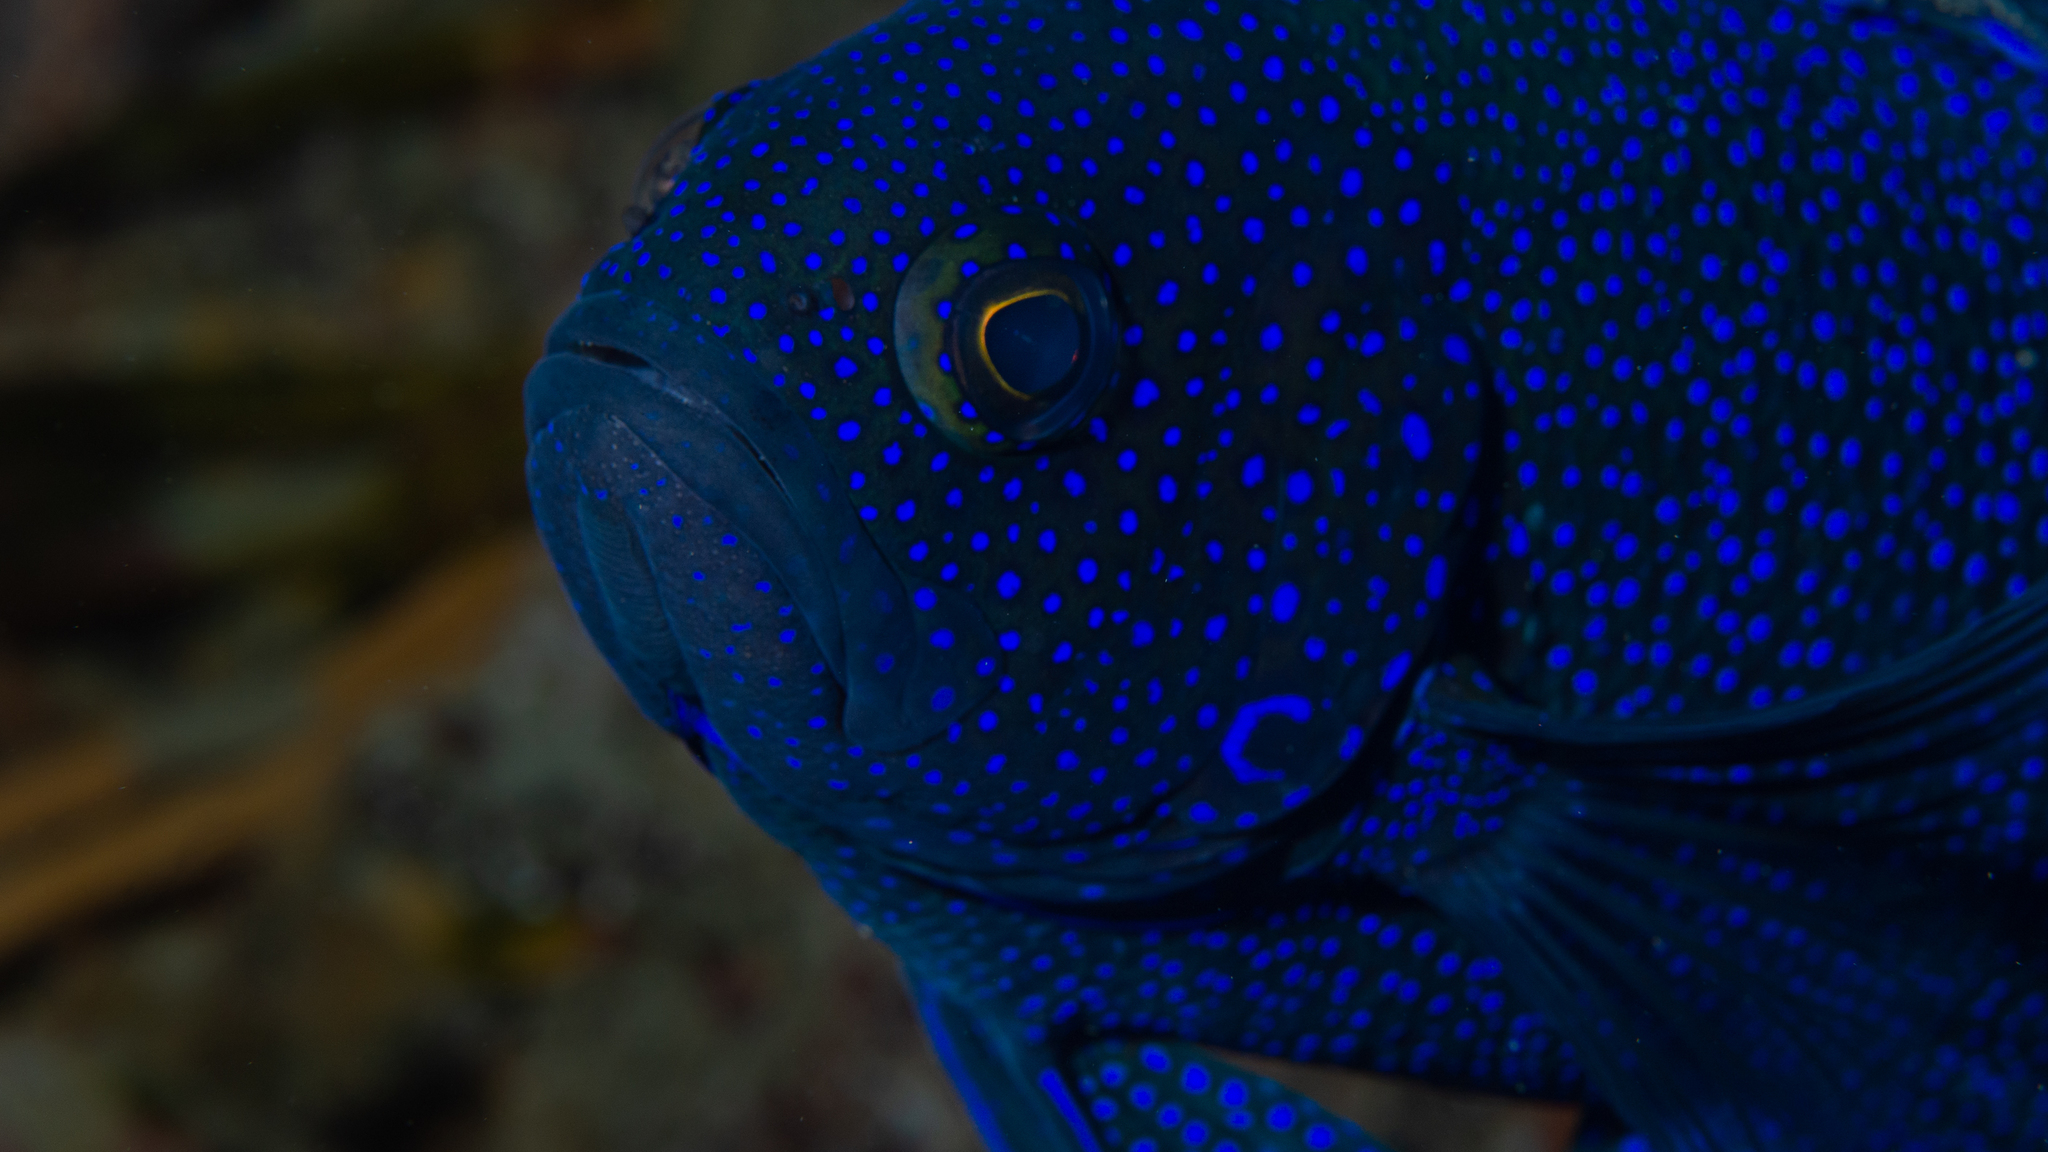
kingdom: Animalia
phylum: Chordata
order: Perciformes
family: Plesiopidae
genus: Paraplesiops
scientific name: Paraplesiops meleagris
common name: Blue devil
